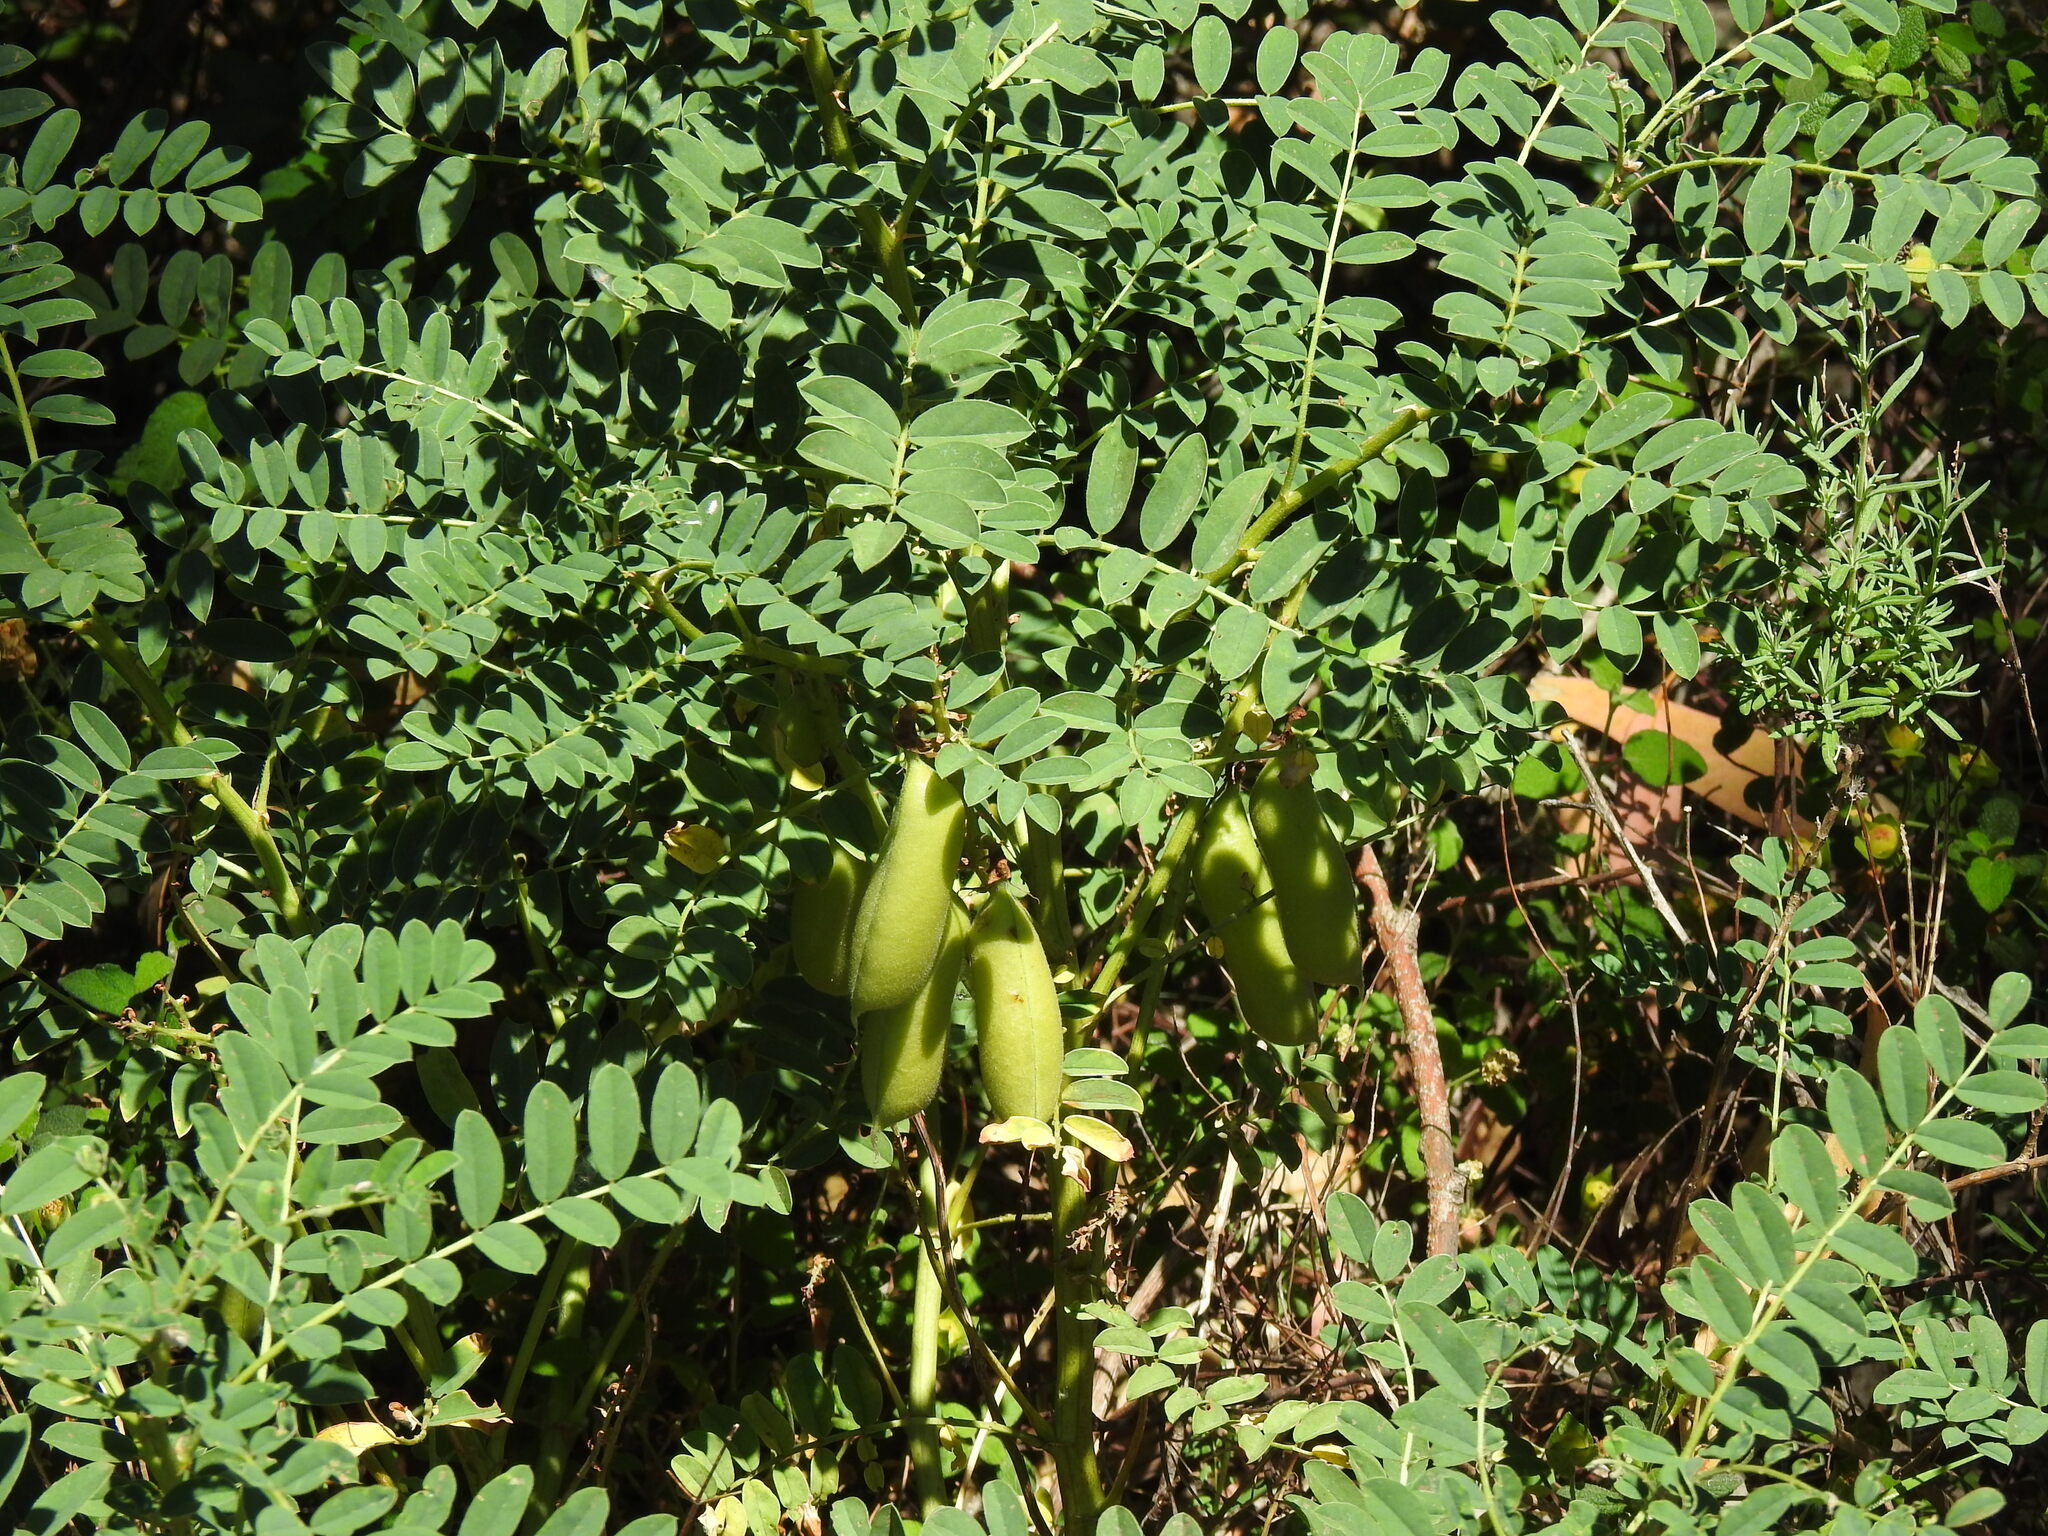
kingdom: Plantae
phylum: Tracheophyta
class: Magnoliopsida
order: Fabales
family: Fabaceae
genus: Erophaca
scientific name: Erophaca baetica
